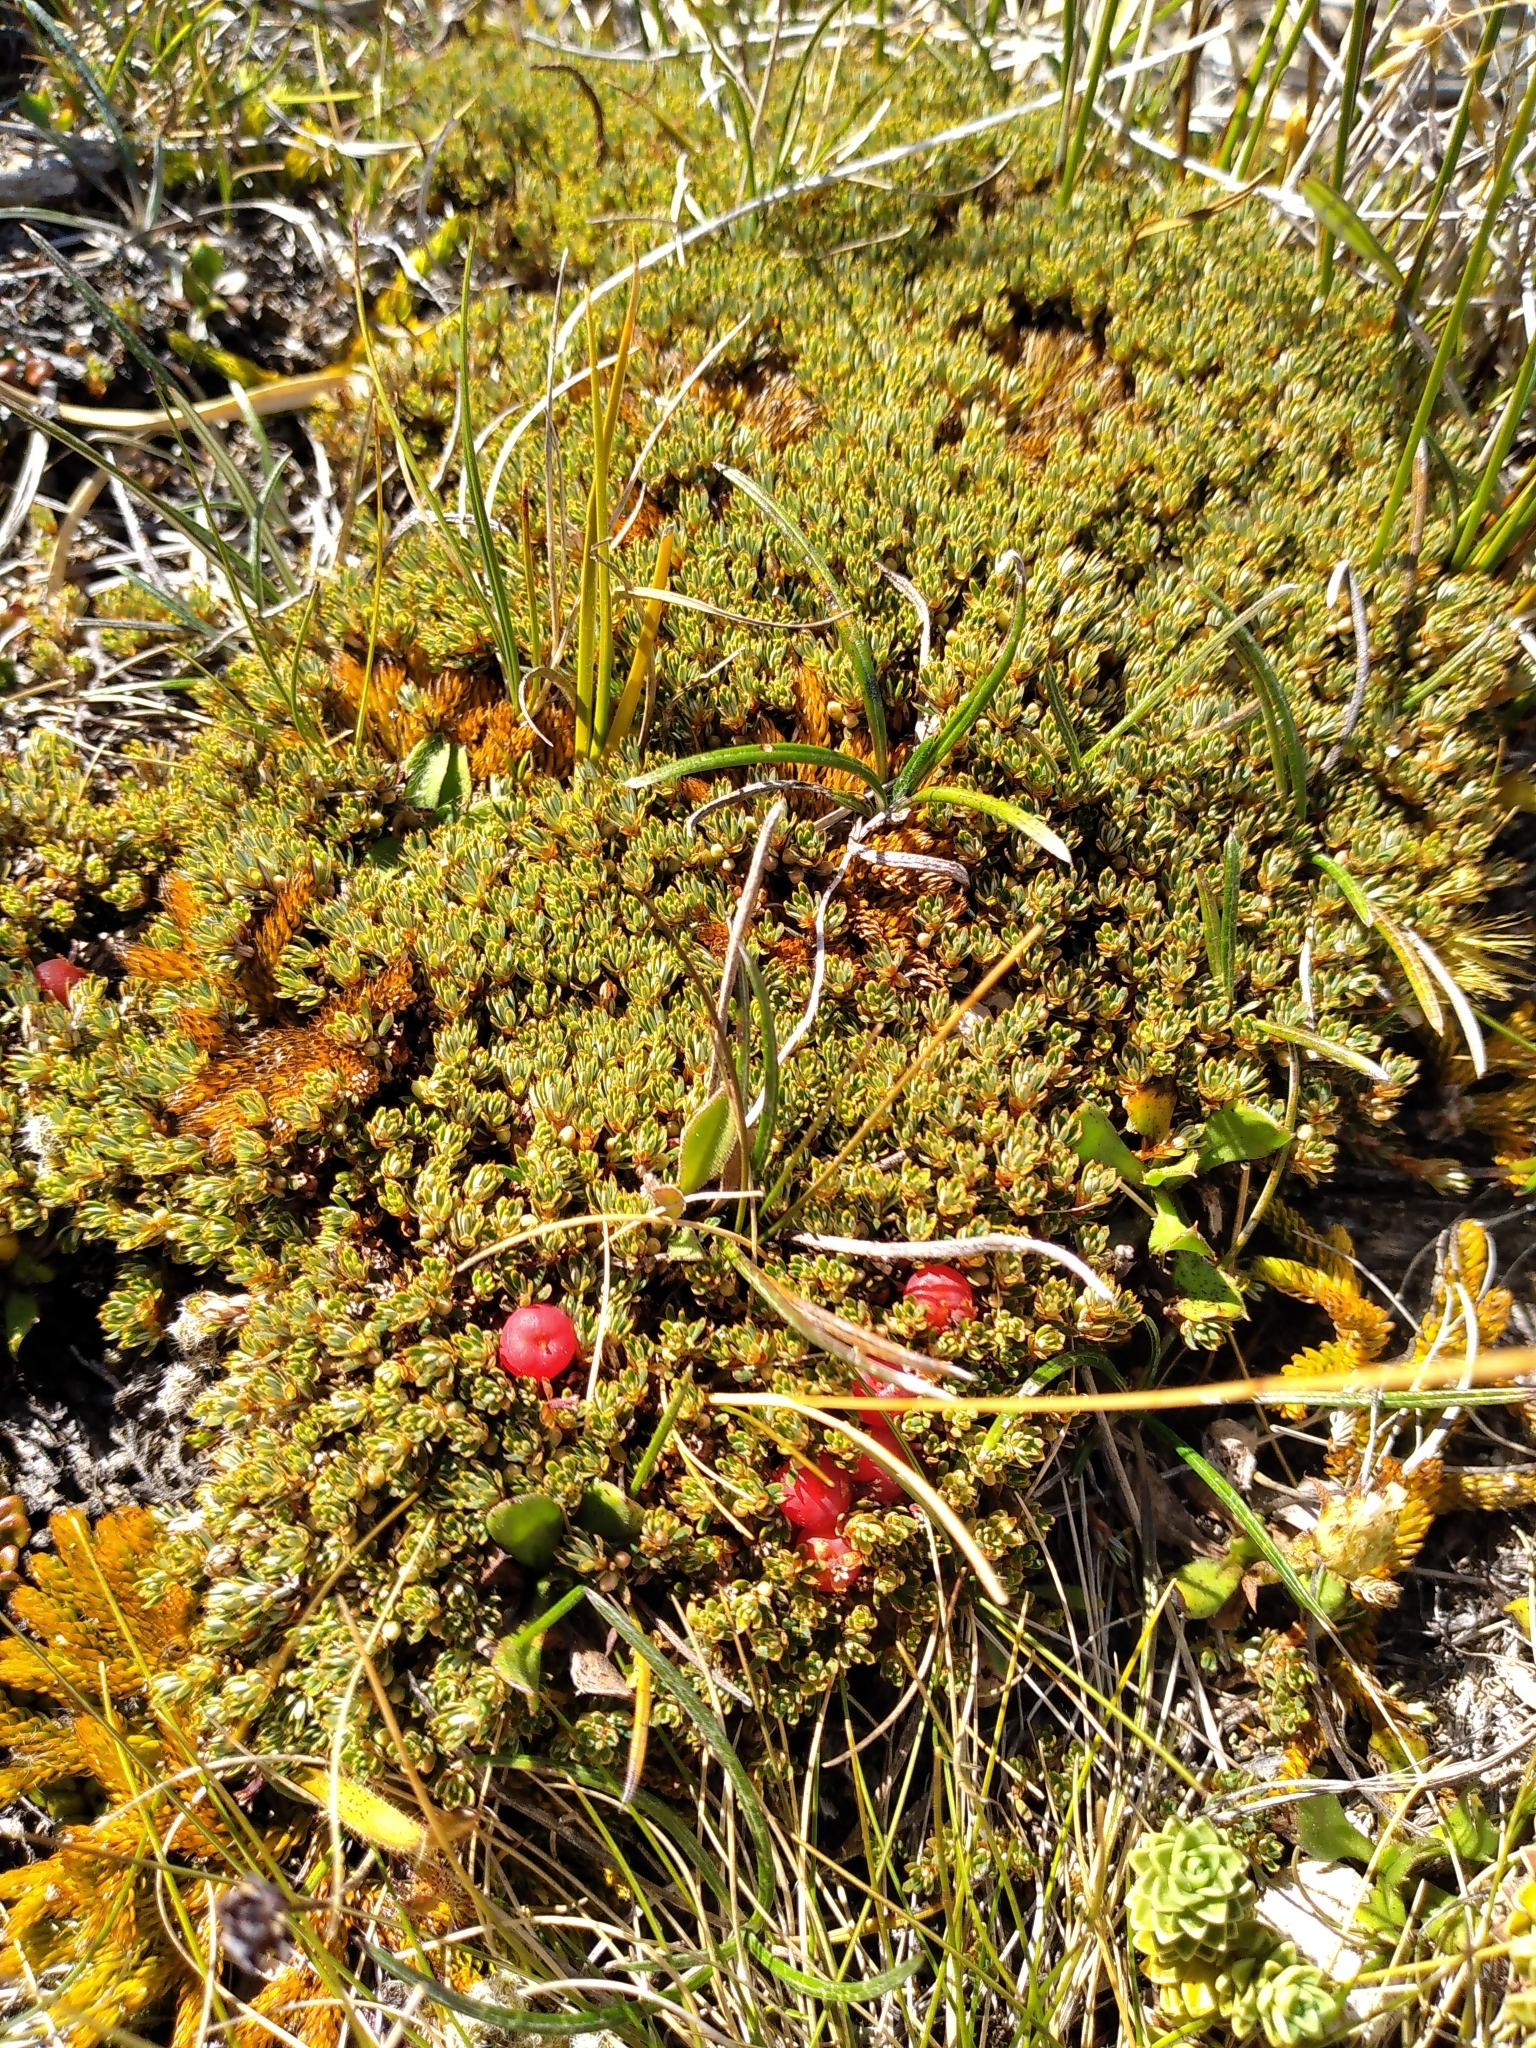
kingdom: Plantae
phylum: Tracheophyta
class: Magnoliopsida
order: Ericales
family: Ericaceae
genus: Montitega
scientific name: Montitega dealbata
